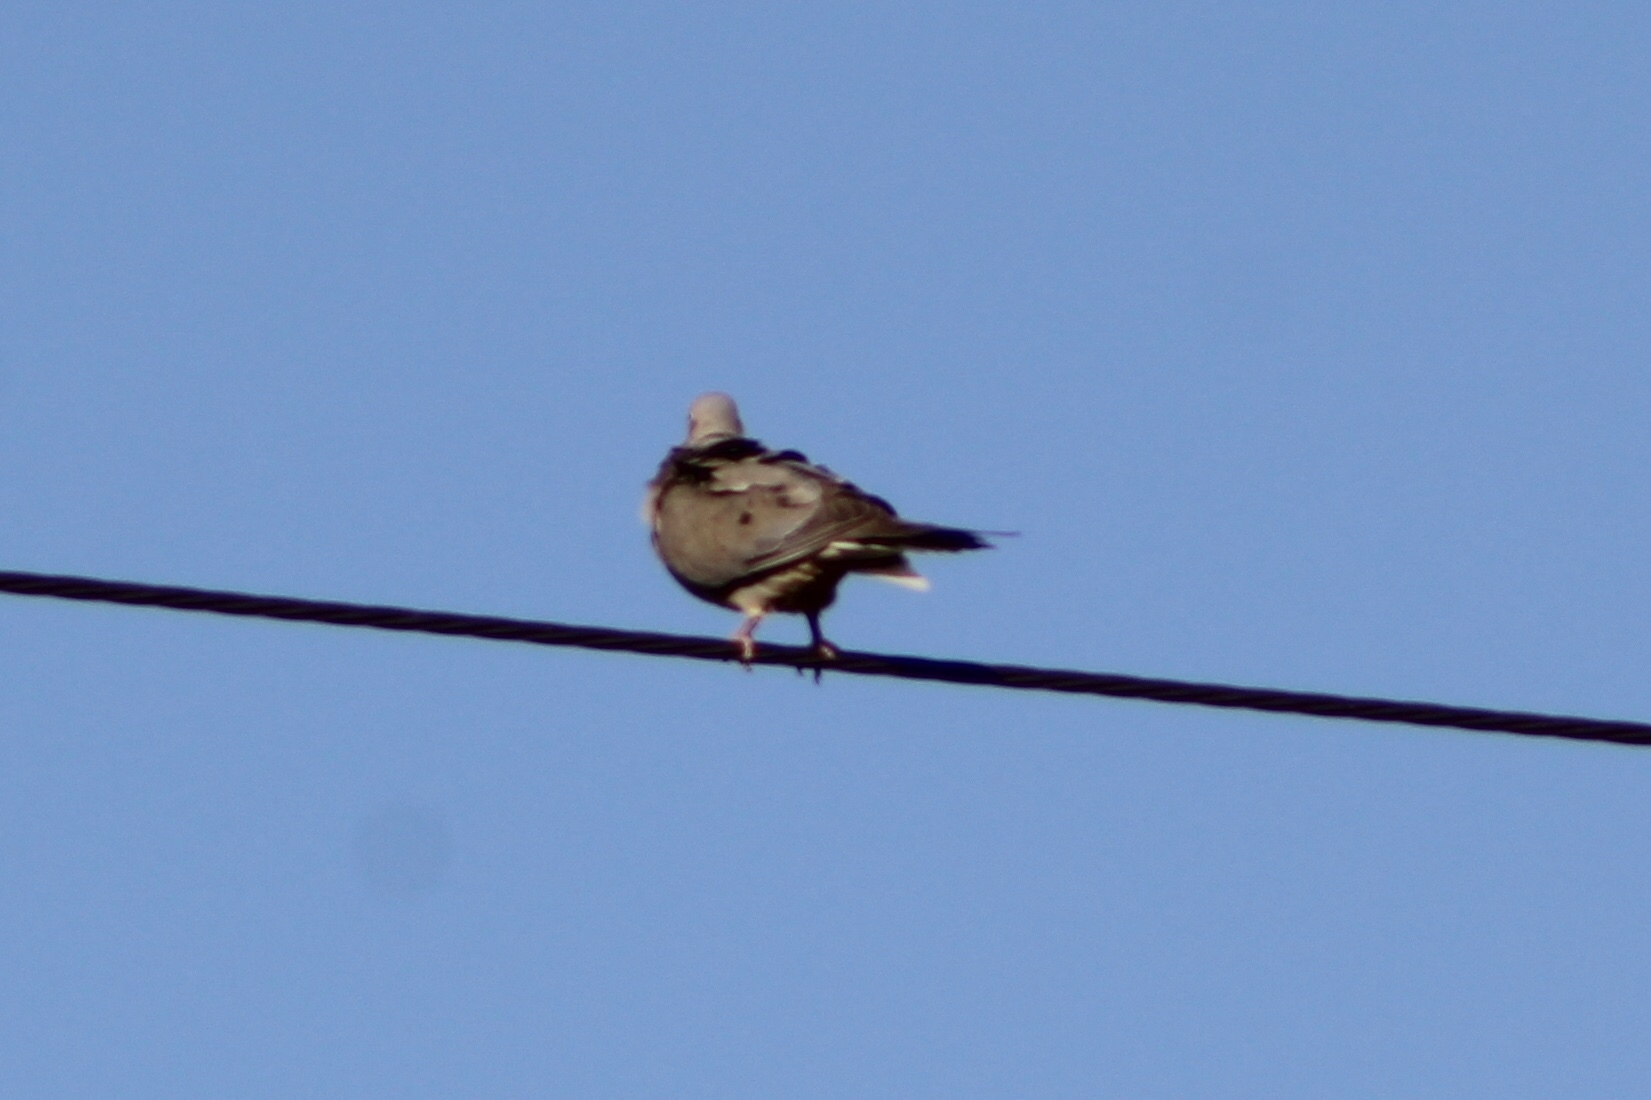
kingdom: Animalia
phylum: Chordata
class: Aves
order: Columbiformes
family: Columbidae
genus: Zenaida
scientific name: Zenaida macroura
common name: Mourning dove
